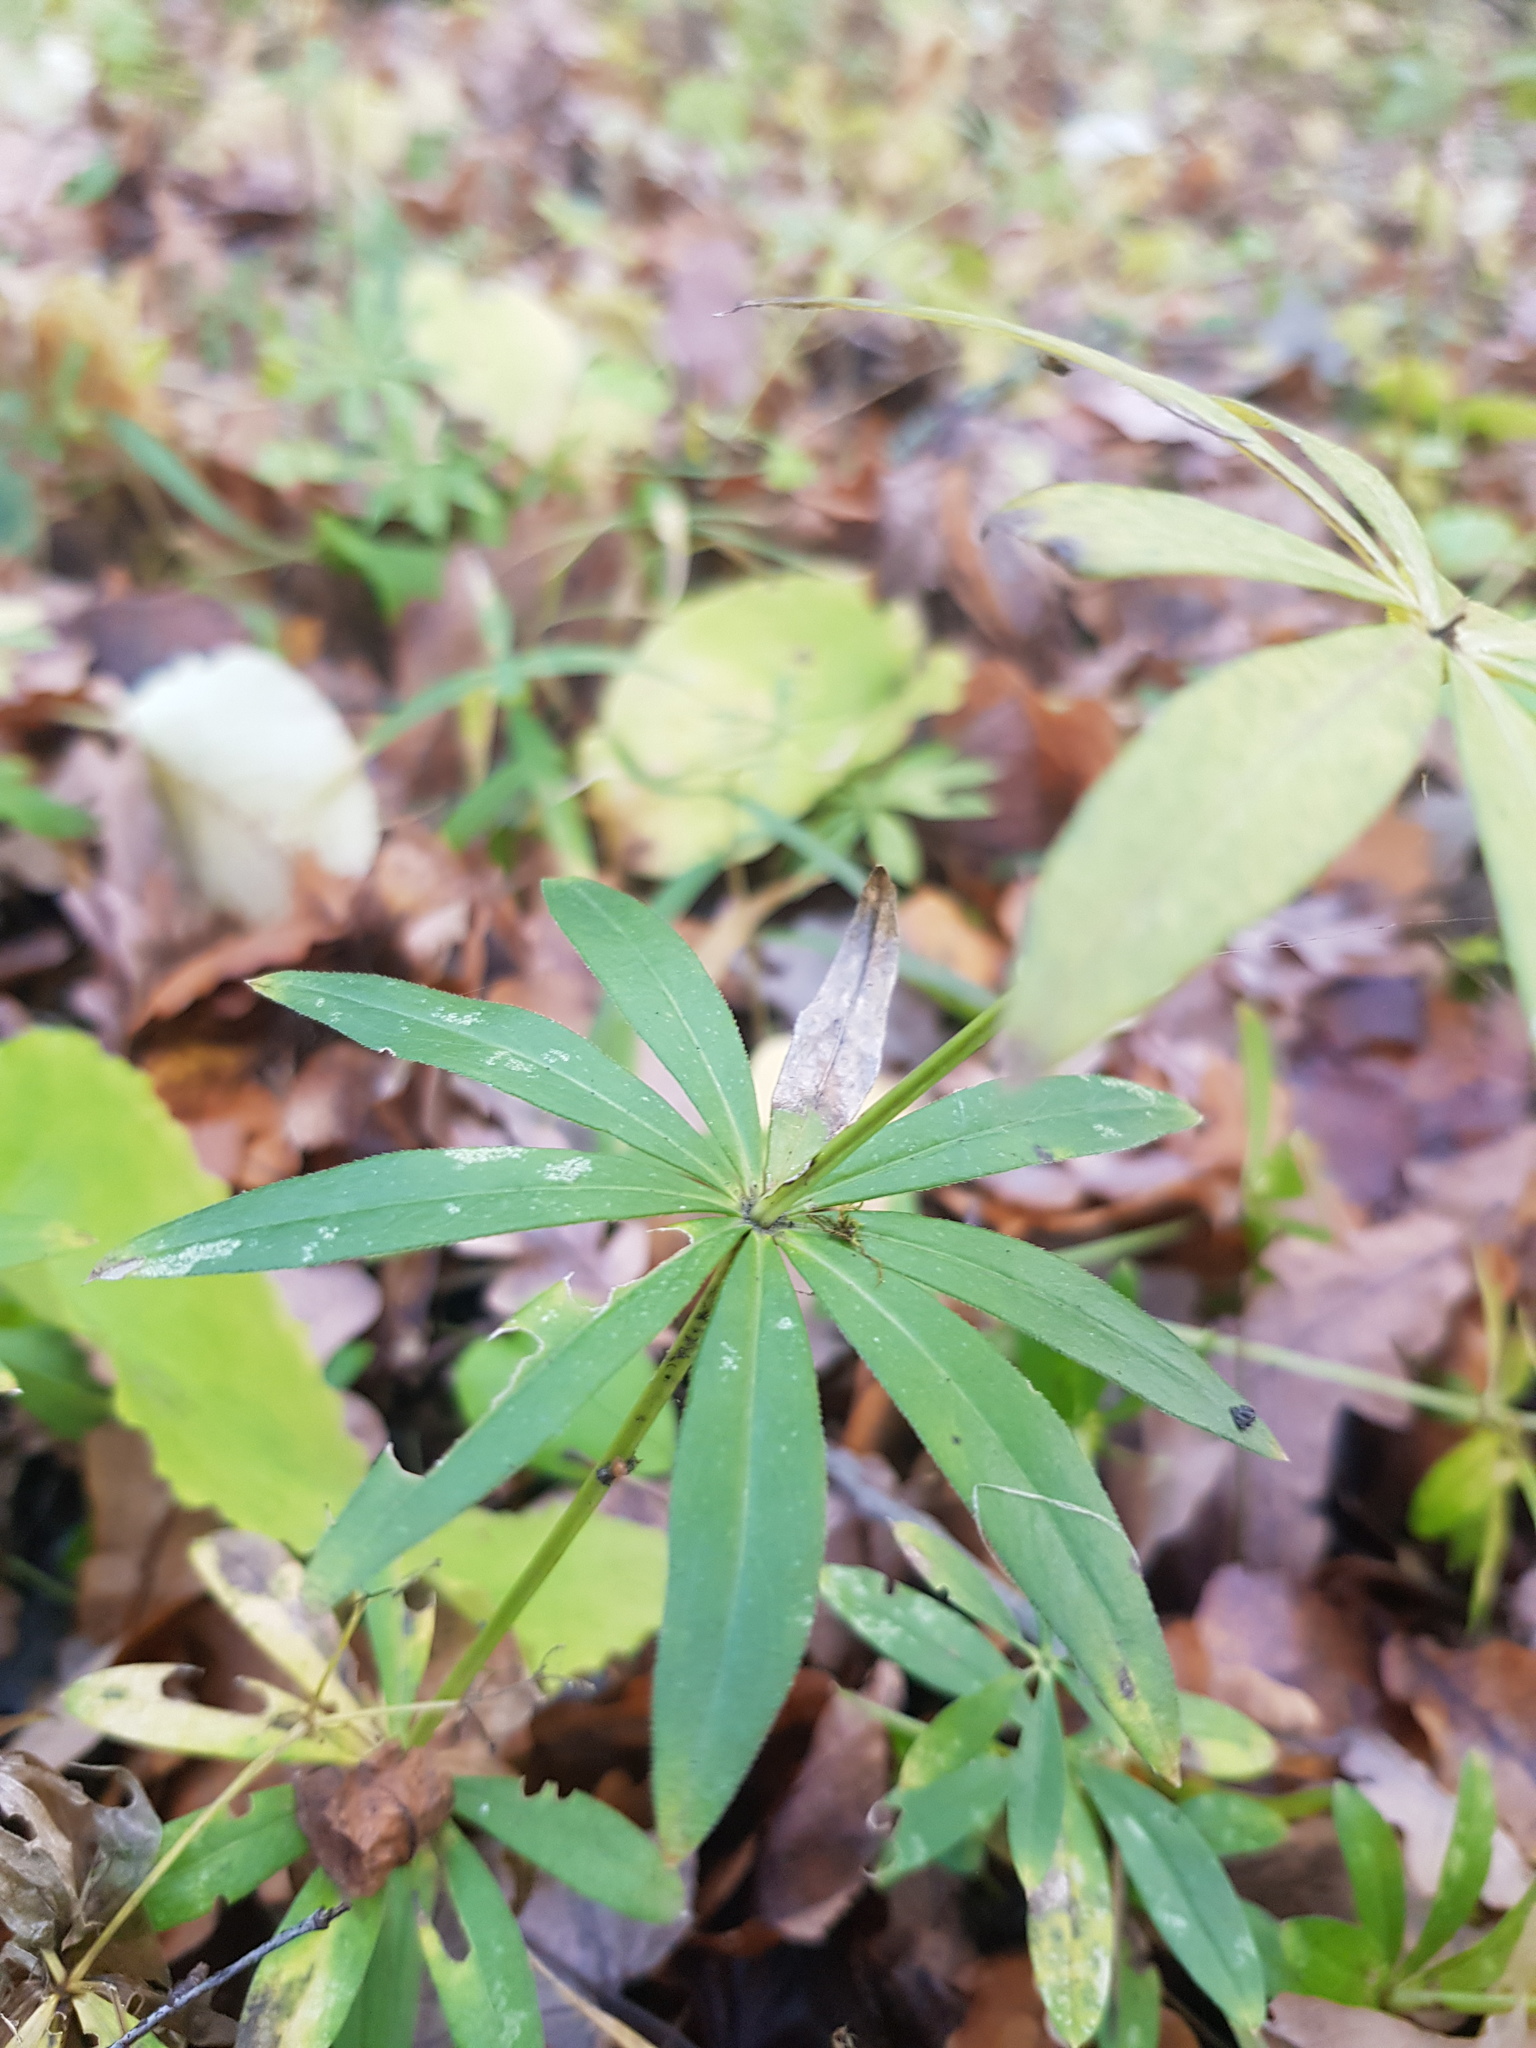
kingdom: Plantae
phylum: Tracheophyta
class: Magnoliopsida
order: Gentianales
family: Rubiaceae
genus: Galium
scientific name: Galium odoratum
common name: Sweet woodruff
